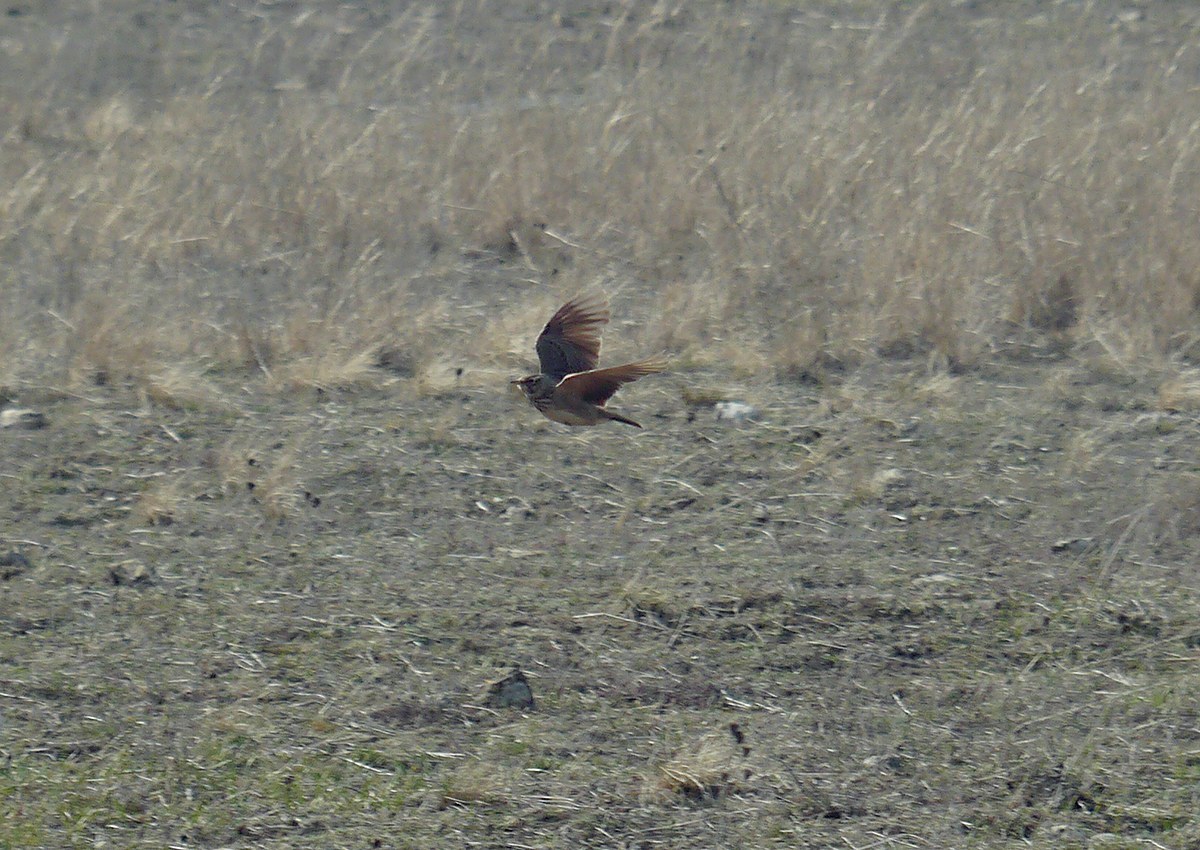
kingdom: Animalia
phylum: Chordata
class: Aves
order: Passeriformes
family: Turdidae
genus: Turdus
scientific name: Turdus pilaris
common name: Fieldfare
